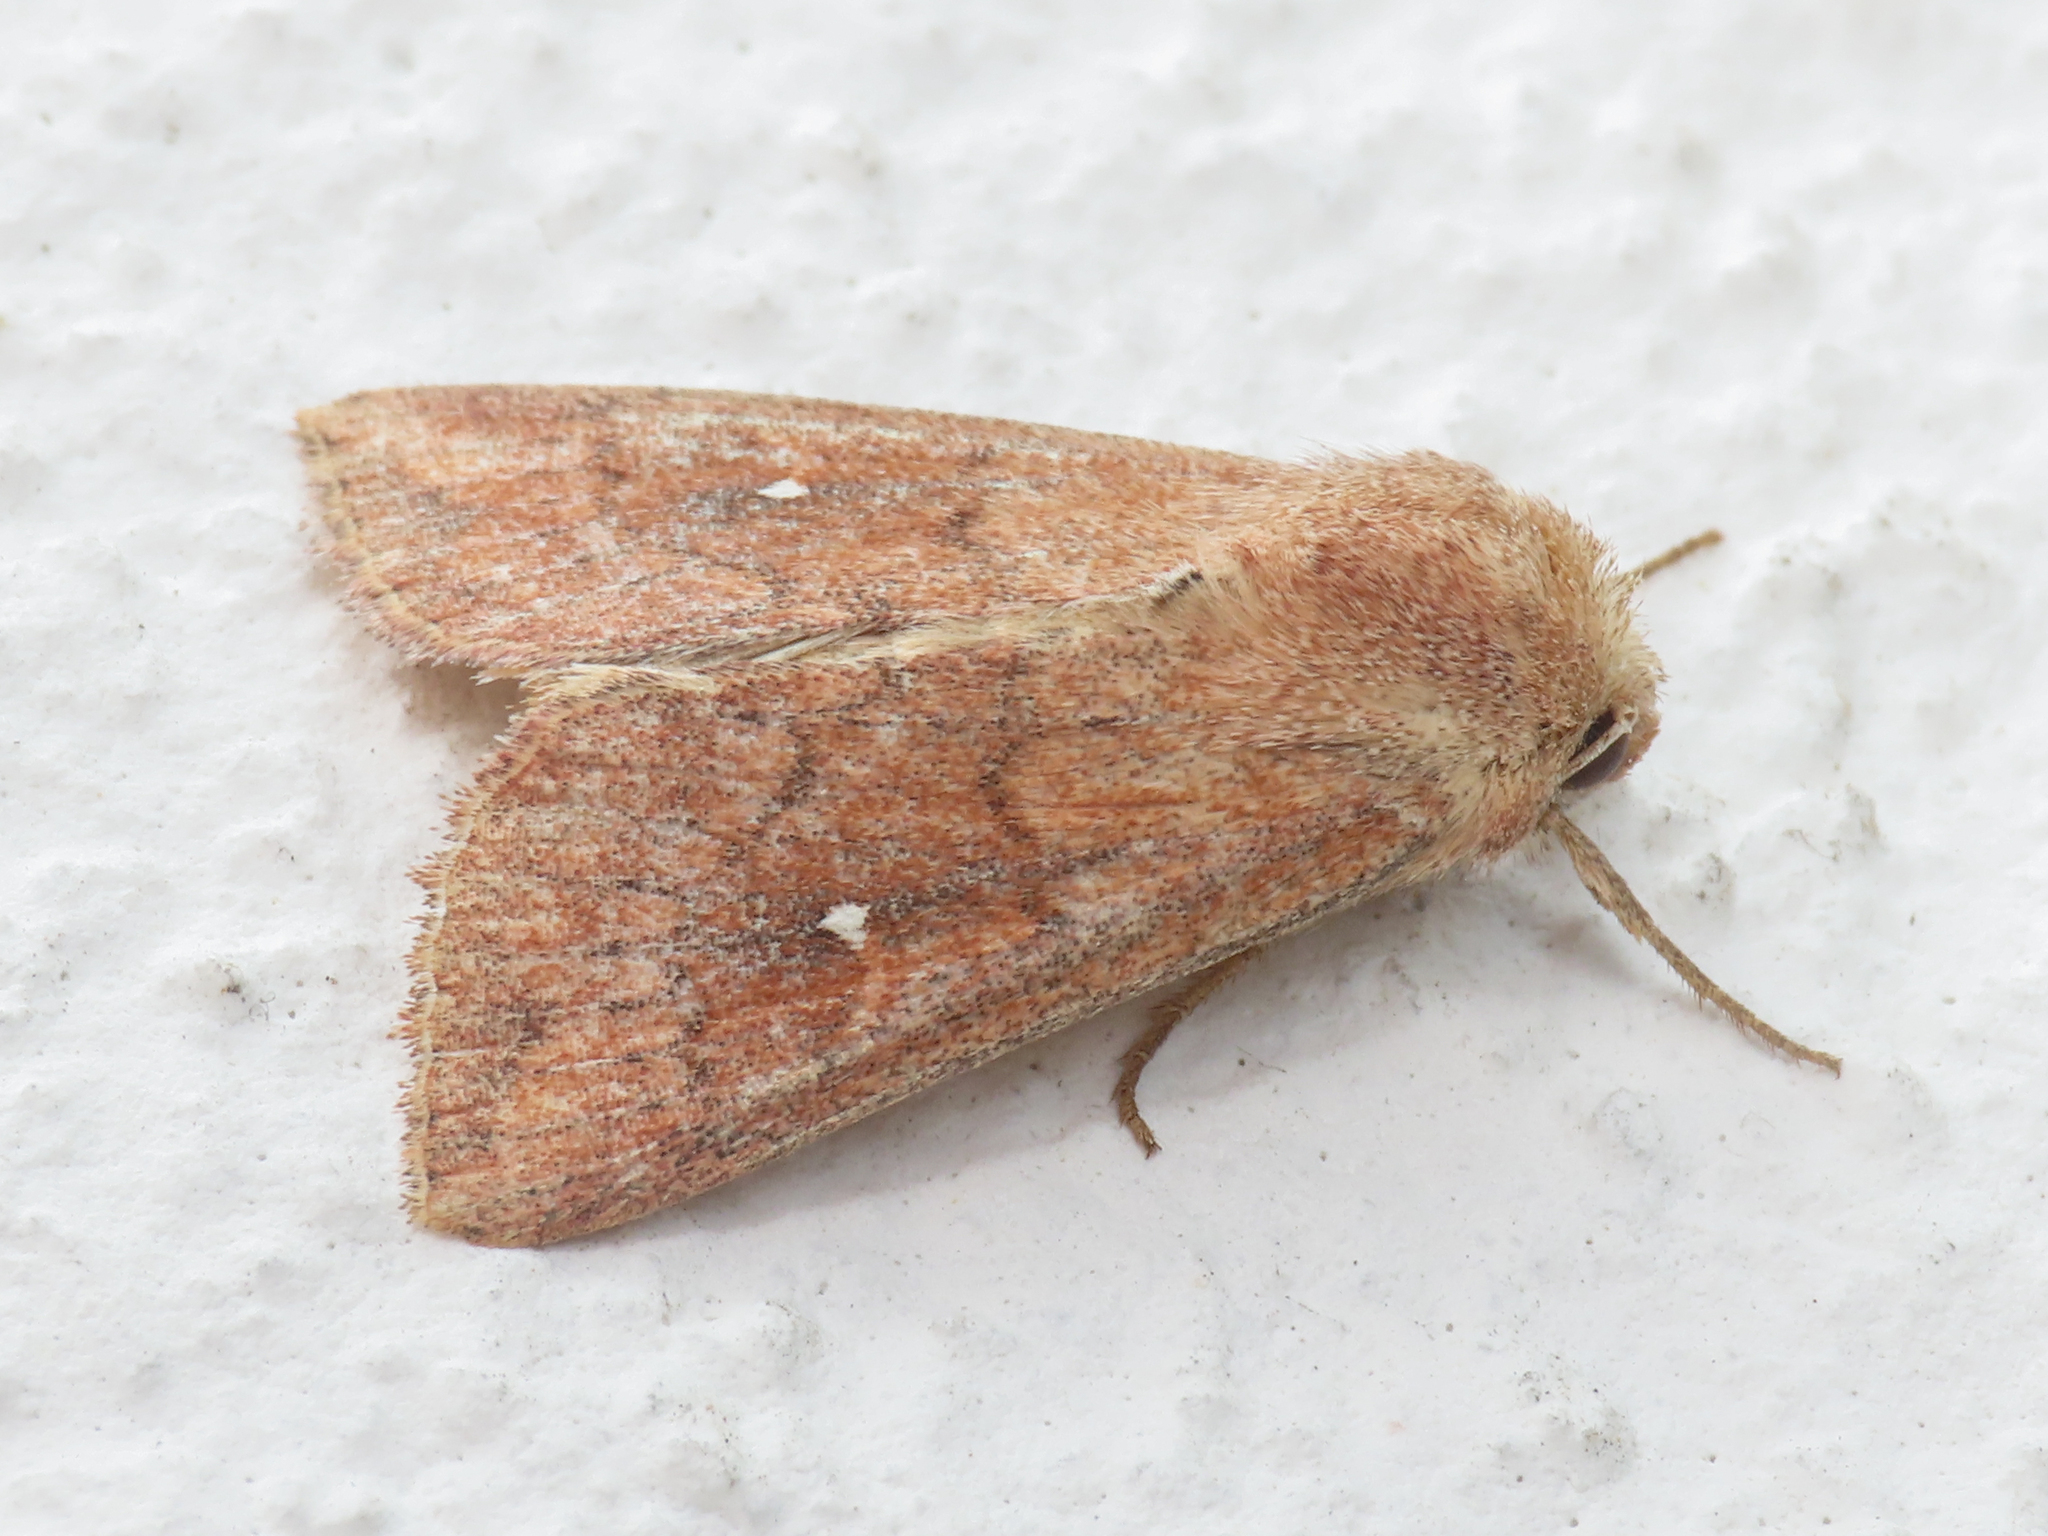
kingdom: Animalia
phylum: Arthropoda
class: Insecta
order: Lepidoptera
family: Noctuidae
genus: Mythimna
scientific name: Mythimna albipuncta
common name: White-point
